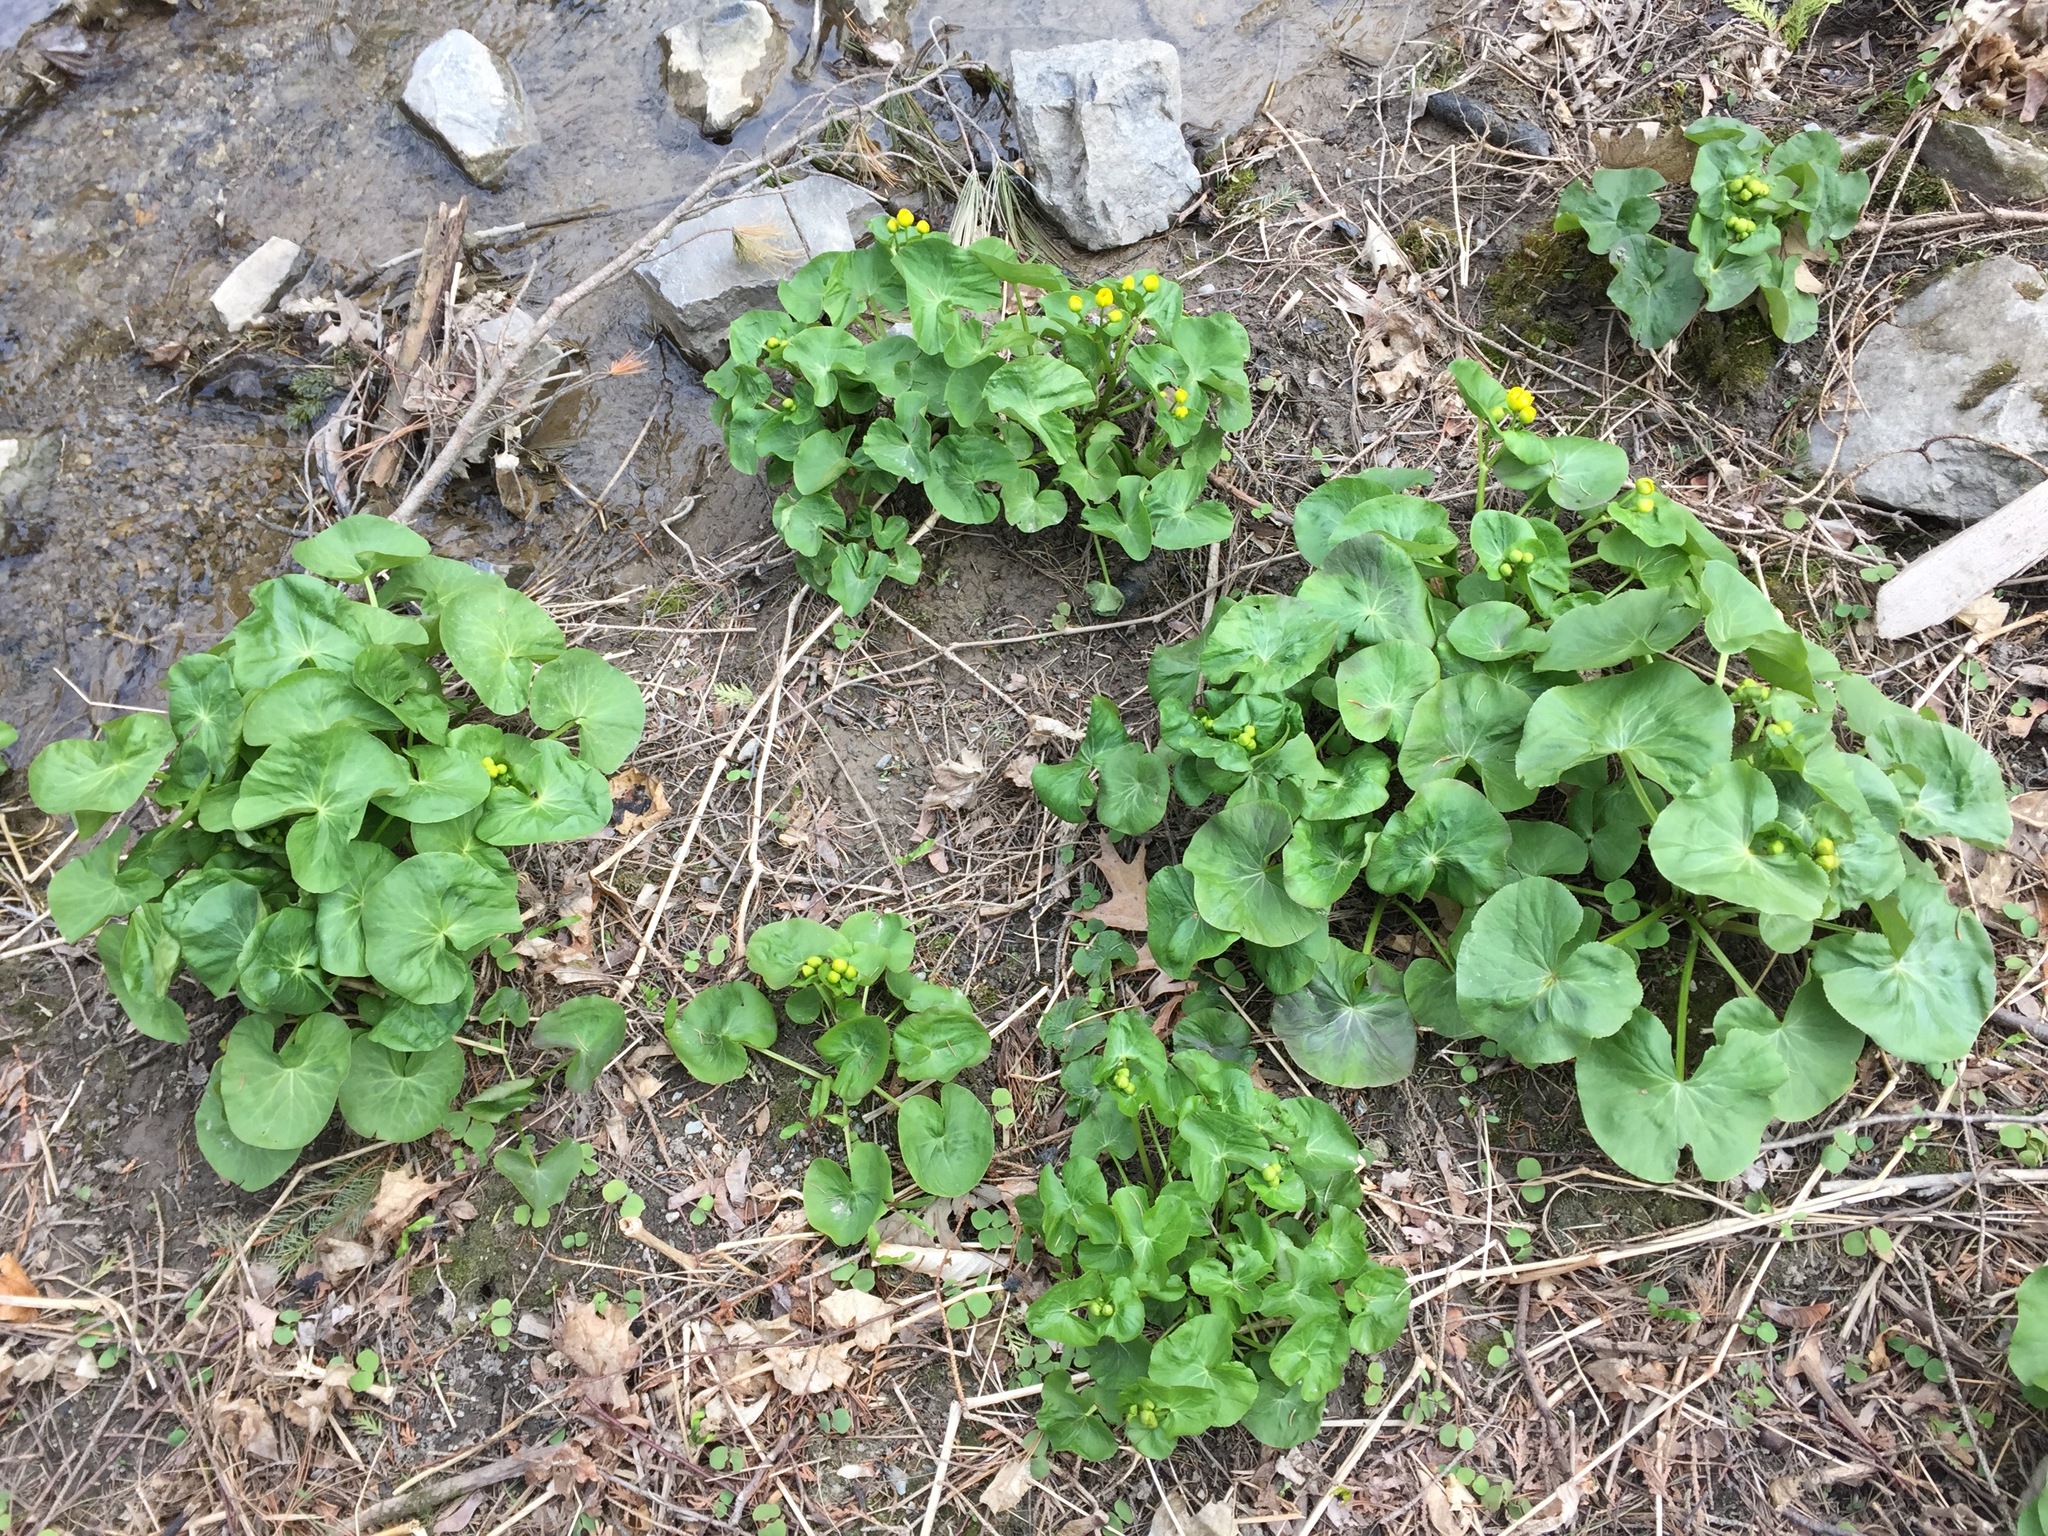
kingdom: Plantae
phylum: Tracheophyta
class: Magnoliopsida
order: Ranunculales
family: Ranunculaceae
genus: Caltha
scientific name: Caltha palustris
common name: Marsh marigold
